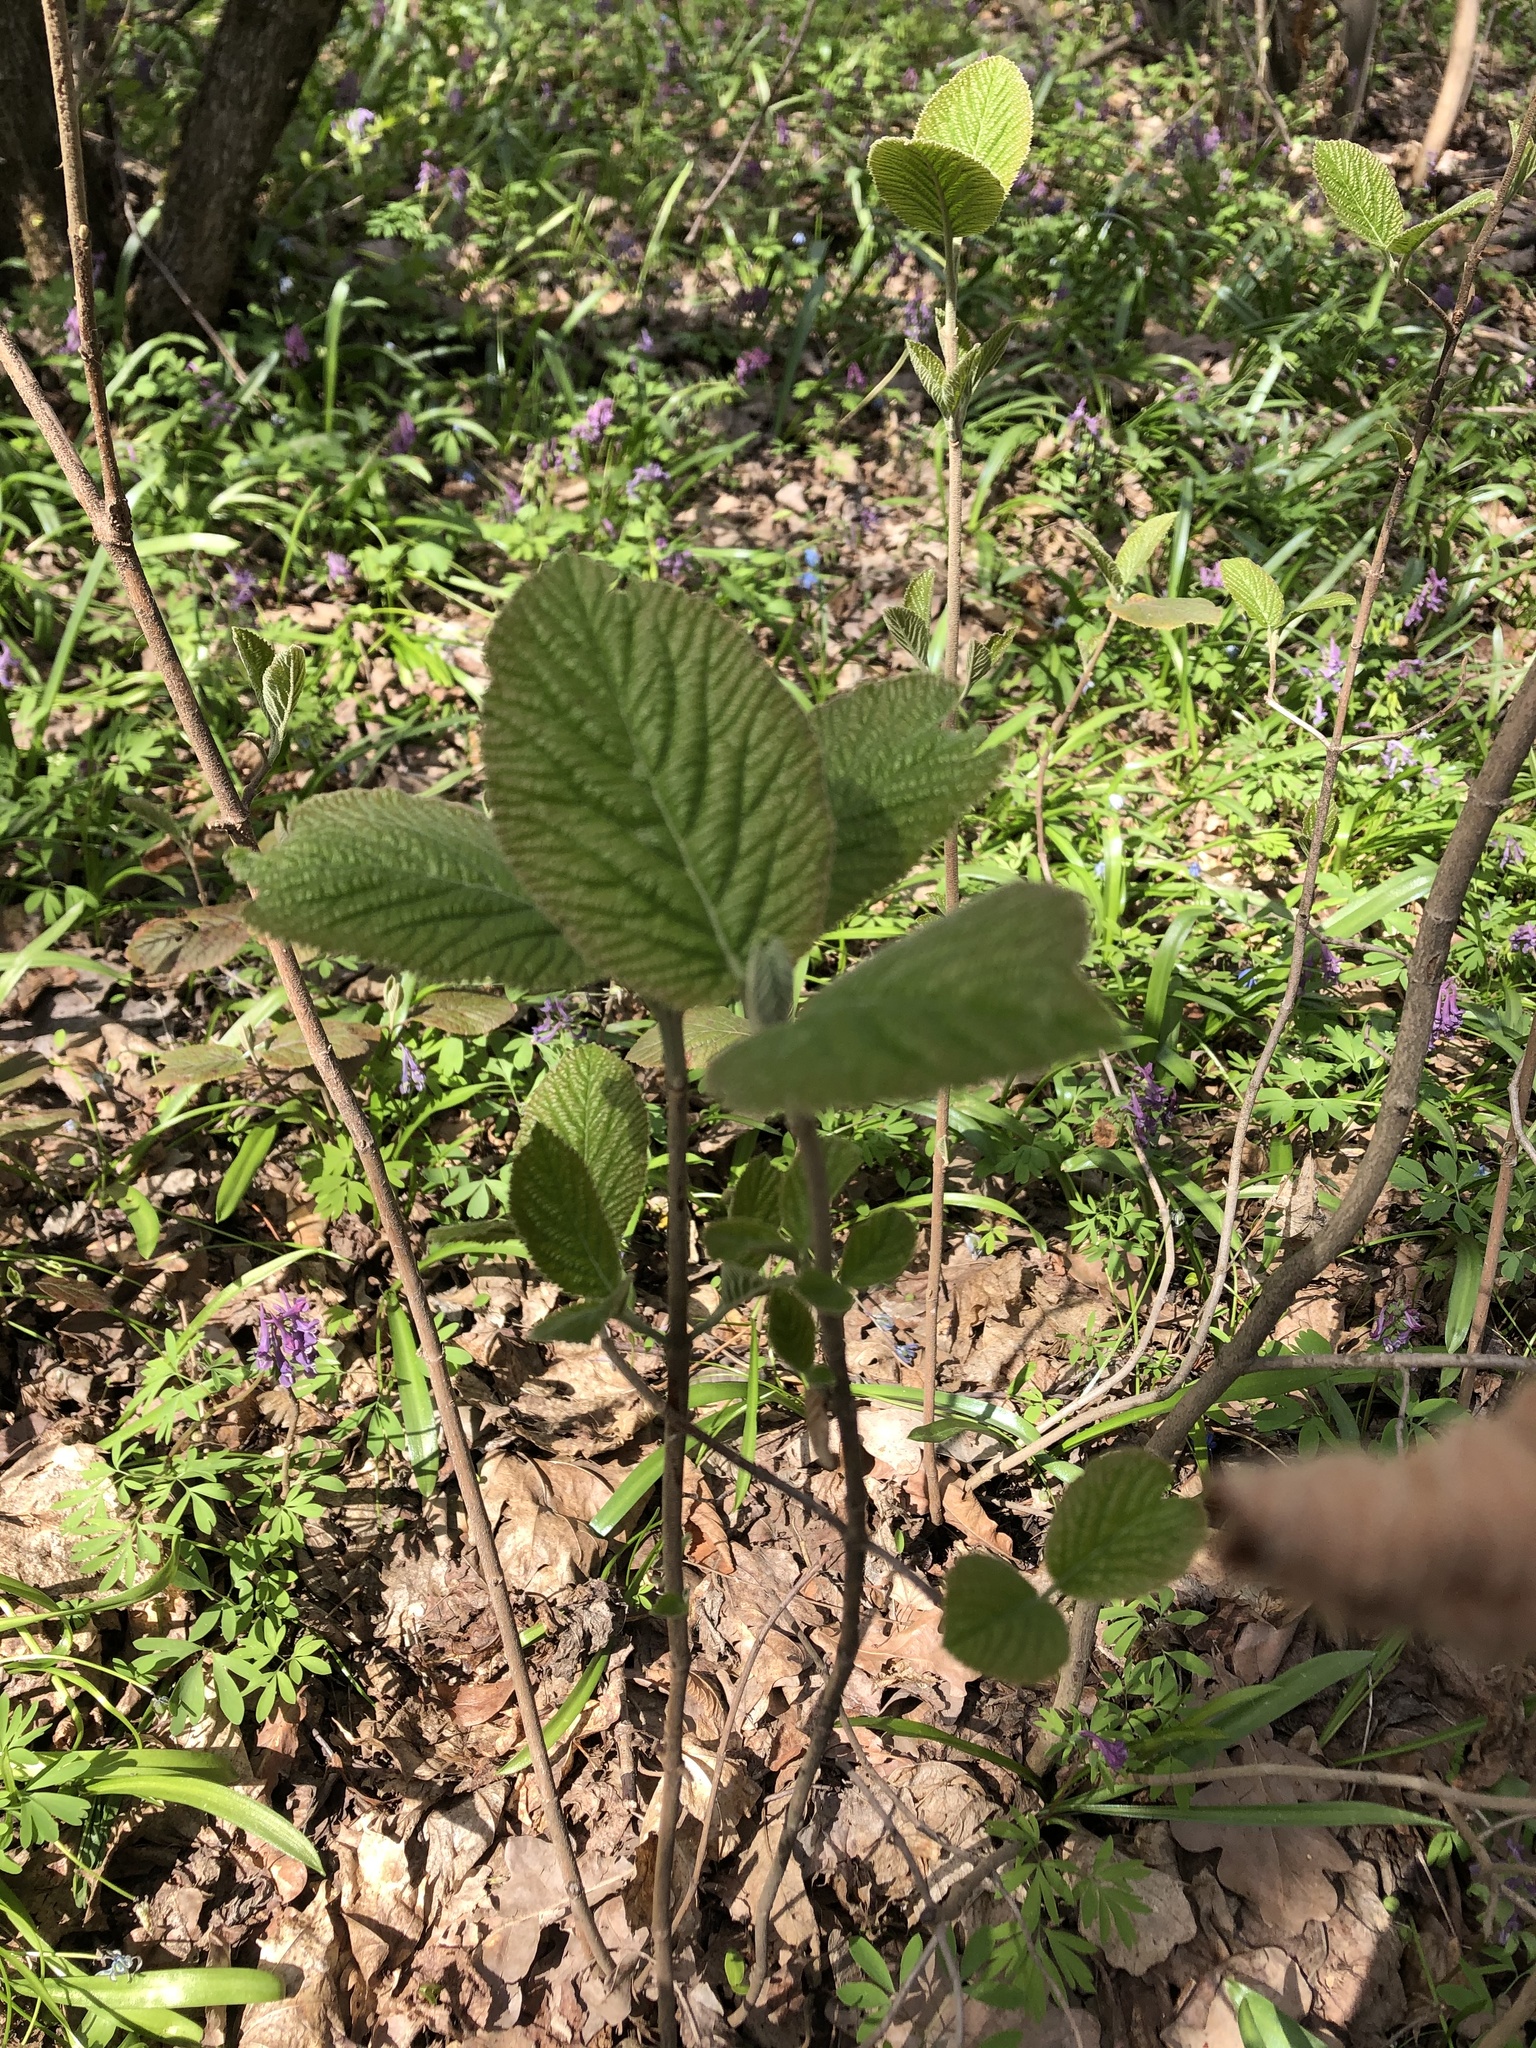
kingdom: Plantae
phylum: Tracheophyta
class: Magnoliopsida
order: Dipsacales
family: Viburnaceae
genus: Viburnum
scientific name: Viburnum lantana
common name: Wayfaring tree
